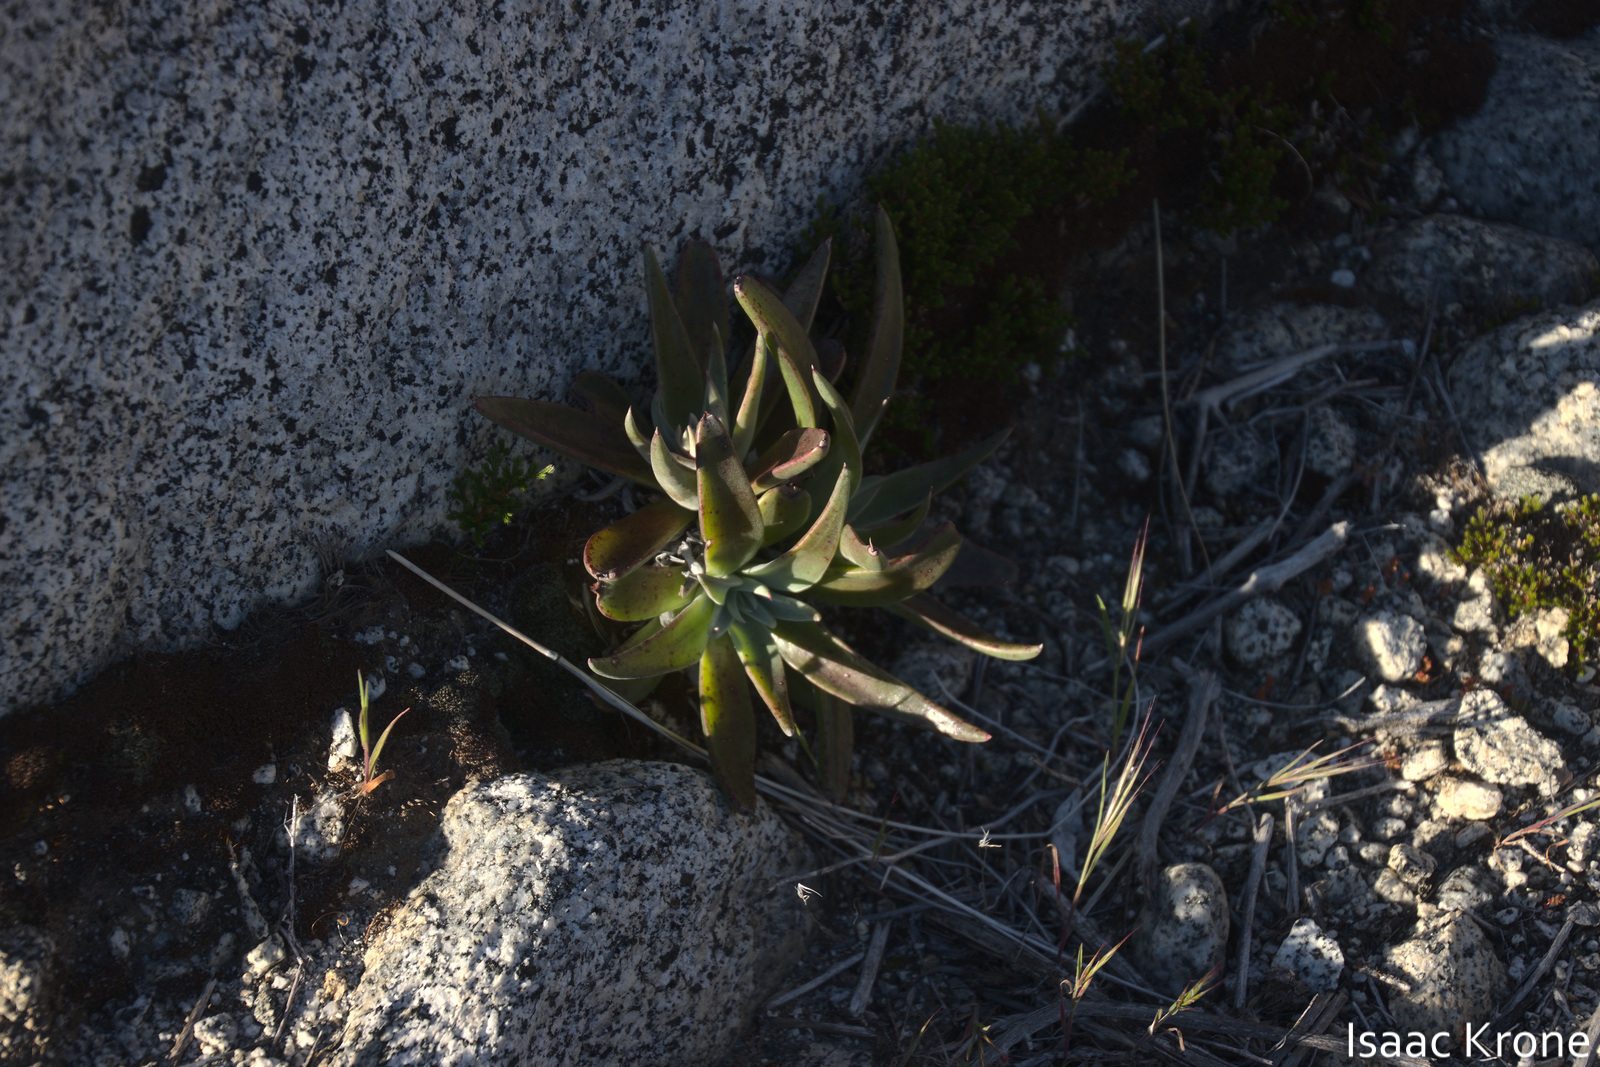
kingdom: Plantae
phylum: Tracheophyta
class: Magnoliopsida
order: Saxifragales
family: Crassulaceae
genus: Dudleya
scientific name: Dudleya saxosa
